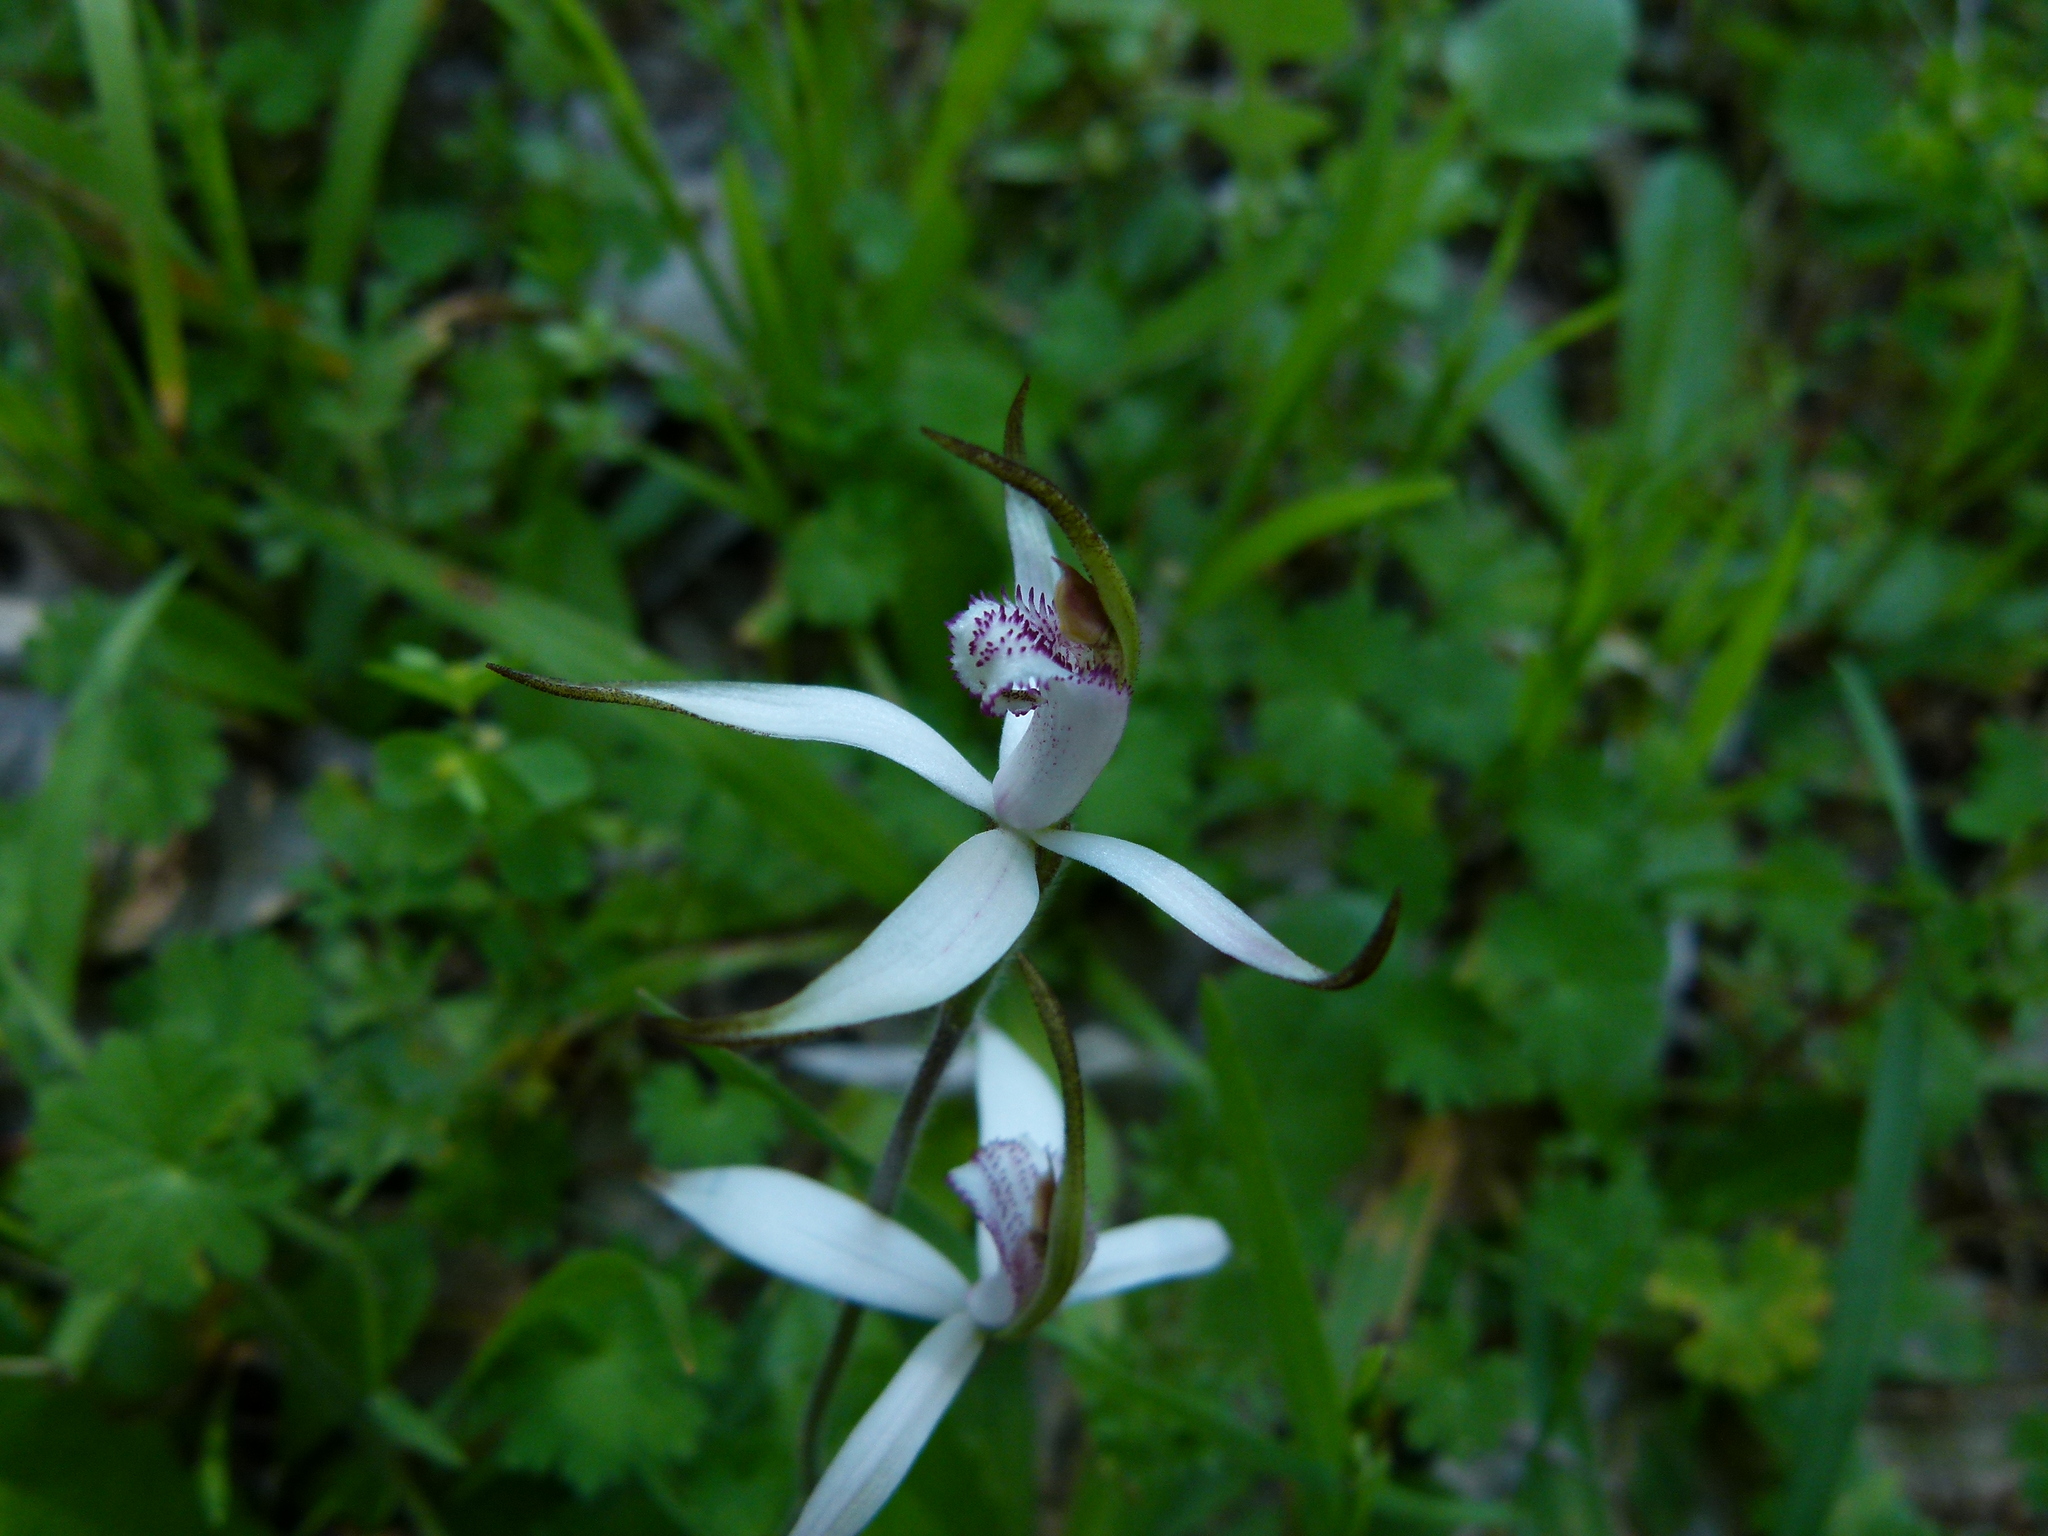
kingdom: Plantae
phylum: Tracheophyta
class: Liliopsida
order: Asparagales
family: Orchidaceae
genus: Caladenia
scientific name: Caladenia hirta
